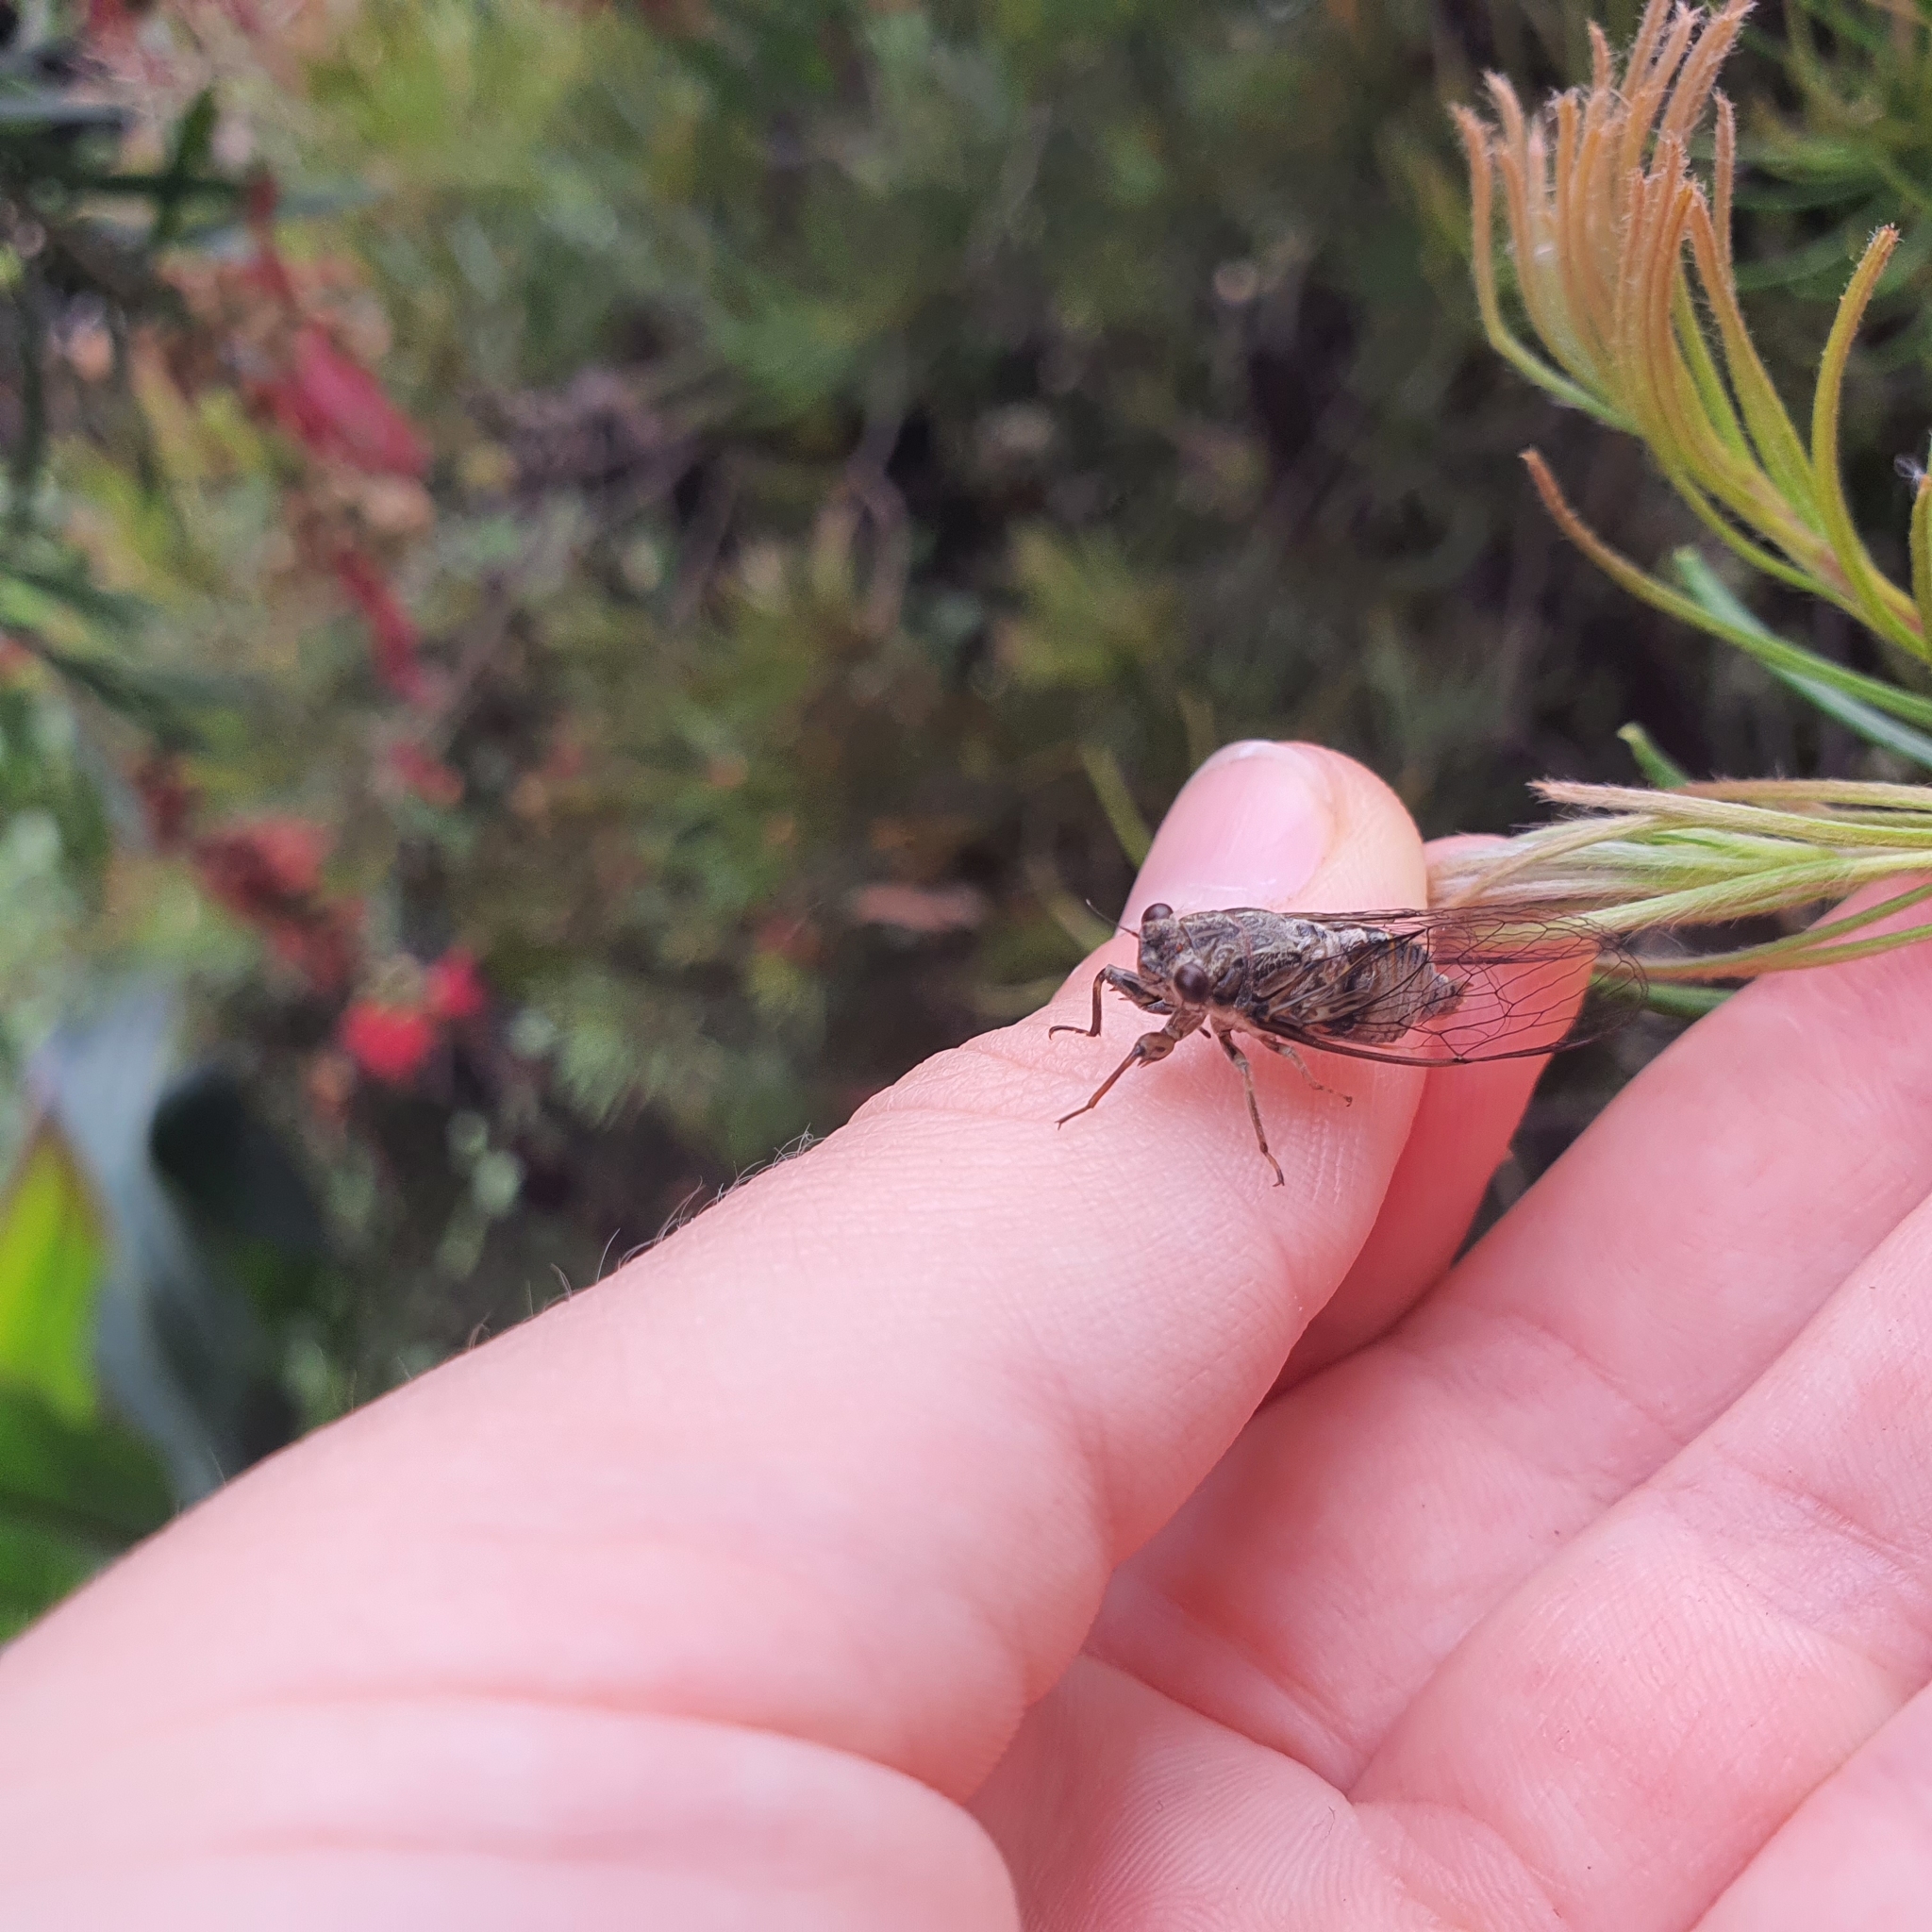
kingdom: Animalia
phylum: Arthropoda
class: Insecta
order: Hemiptera
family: Cicadidae
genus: Yoyetta
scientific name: Yoyetta celis
